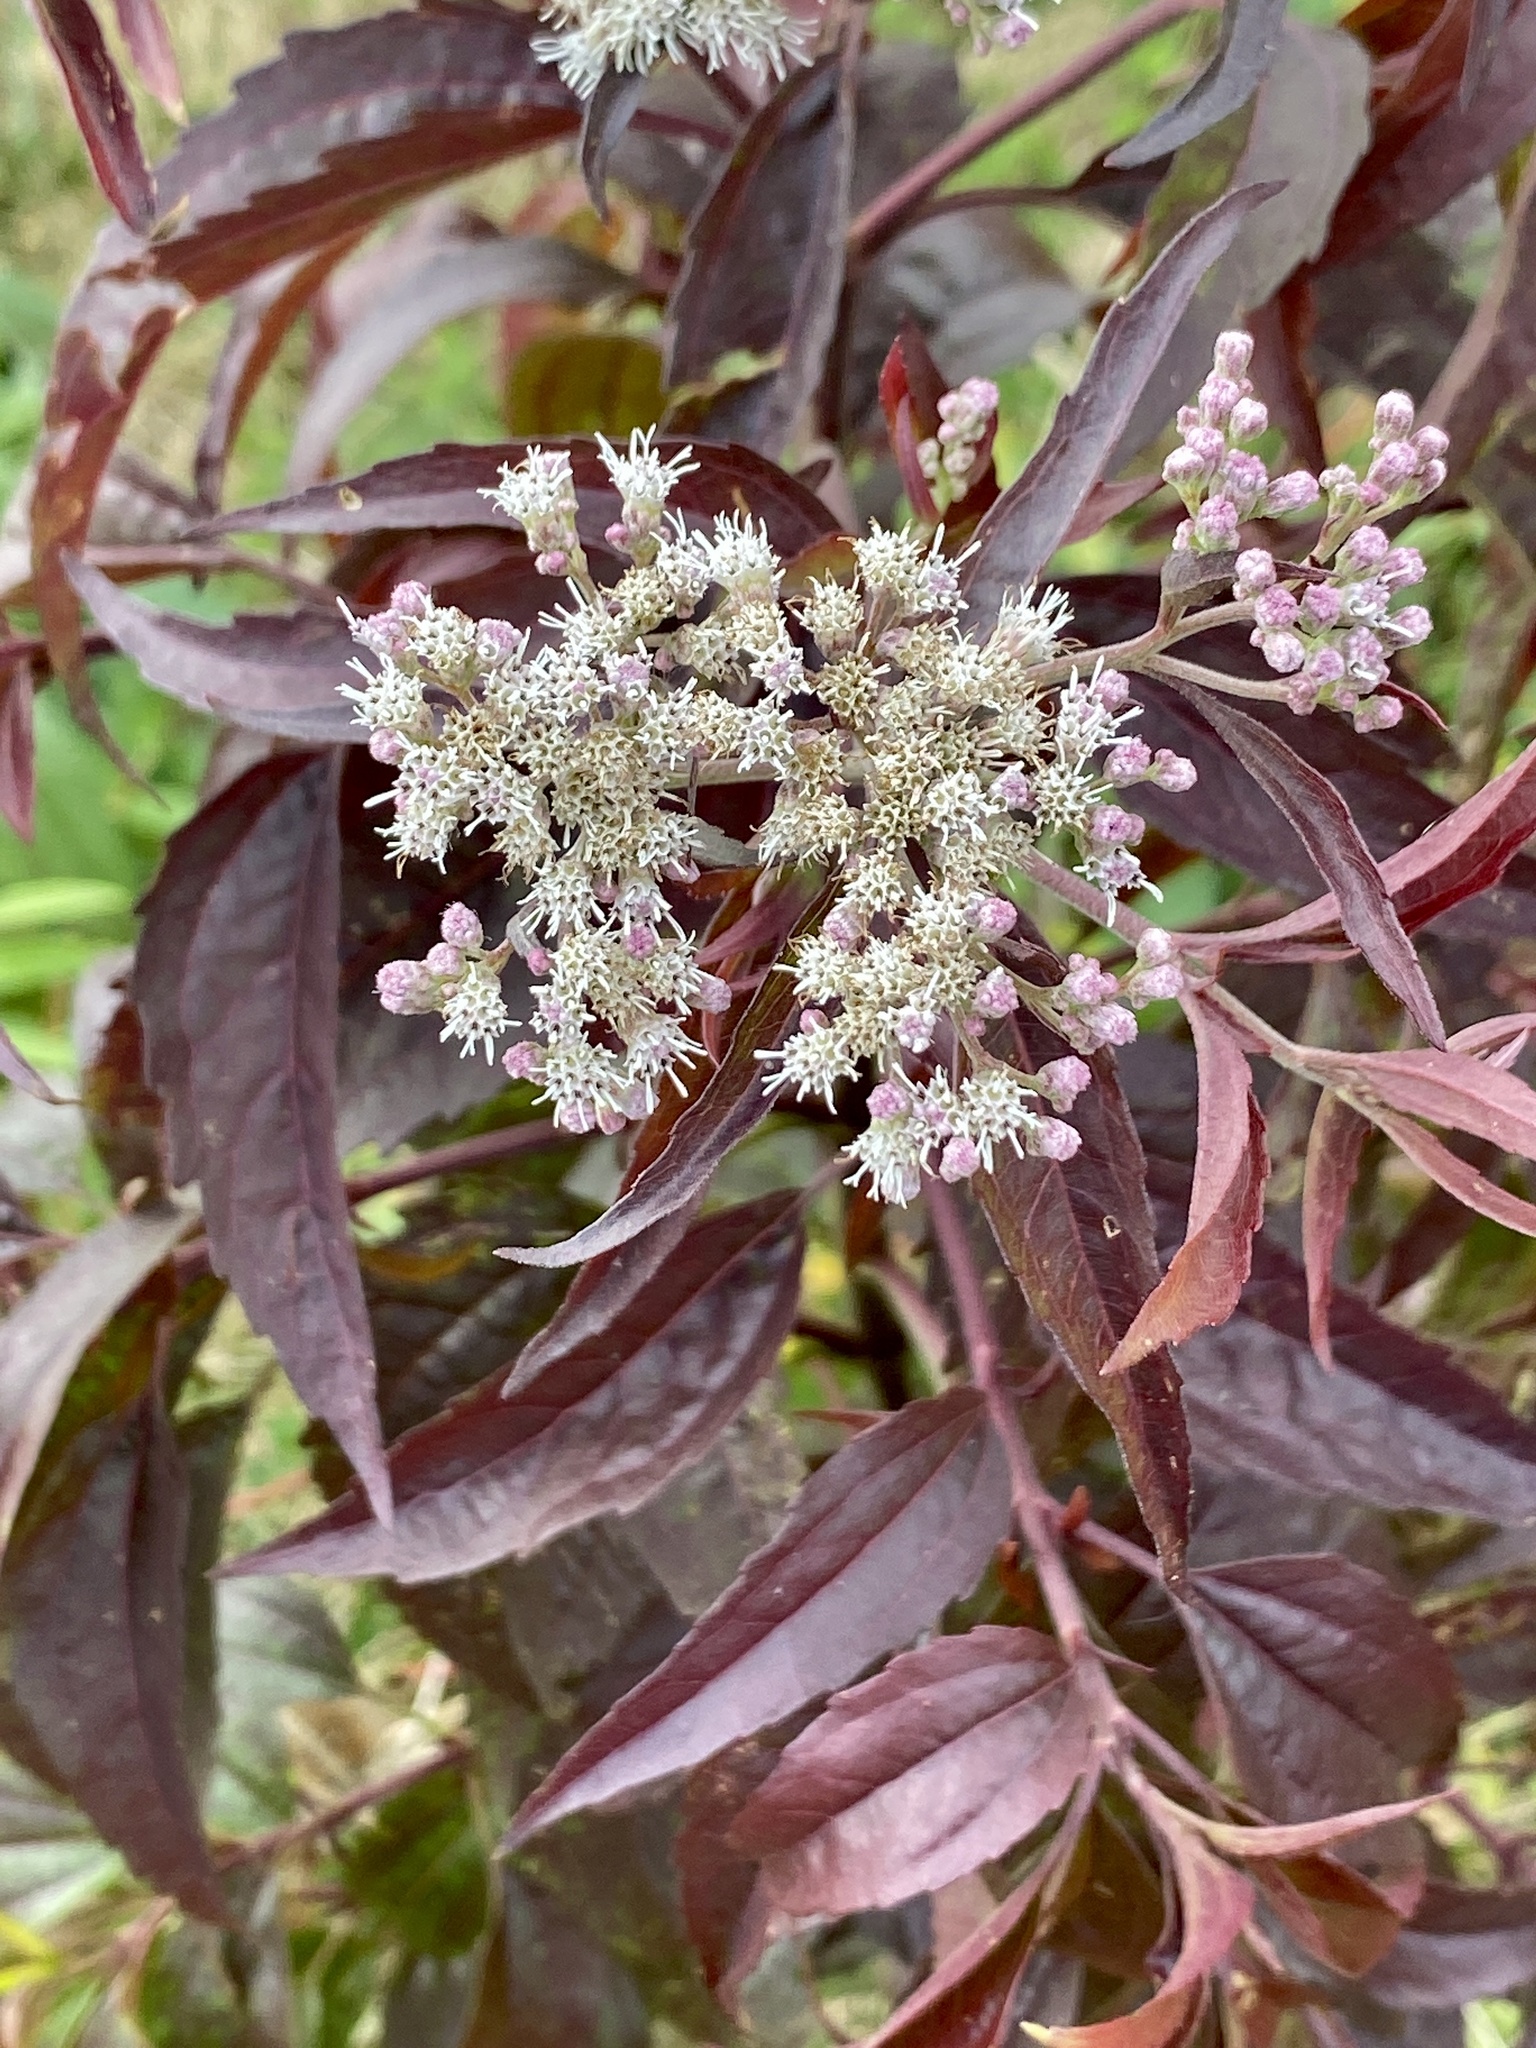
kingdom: Plantae
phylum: Tracheophyta
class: Magnoliopsida
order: Asterales
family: Asteraceae
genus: Eupatorium
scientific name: Eupatorium serotinum
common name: Late boneset
